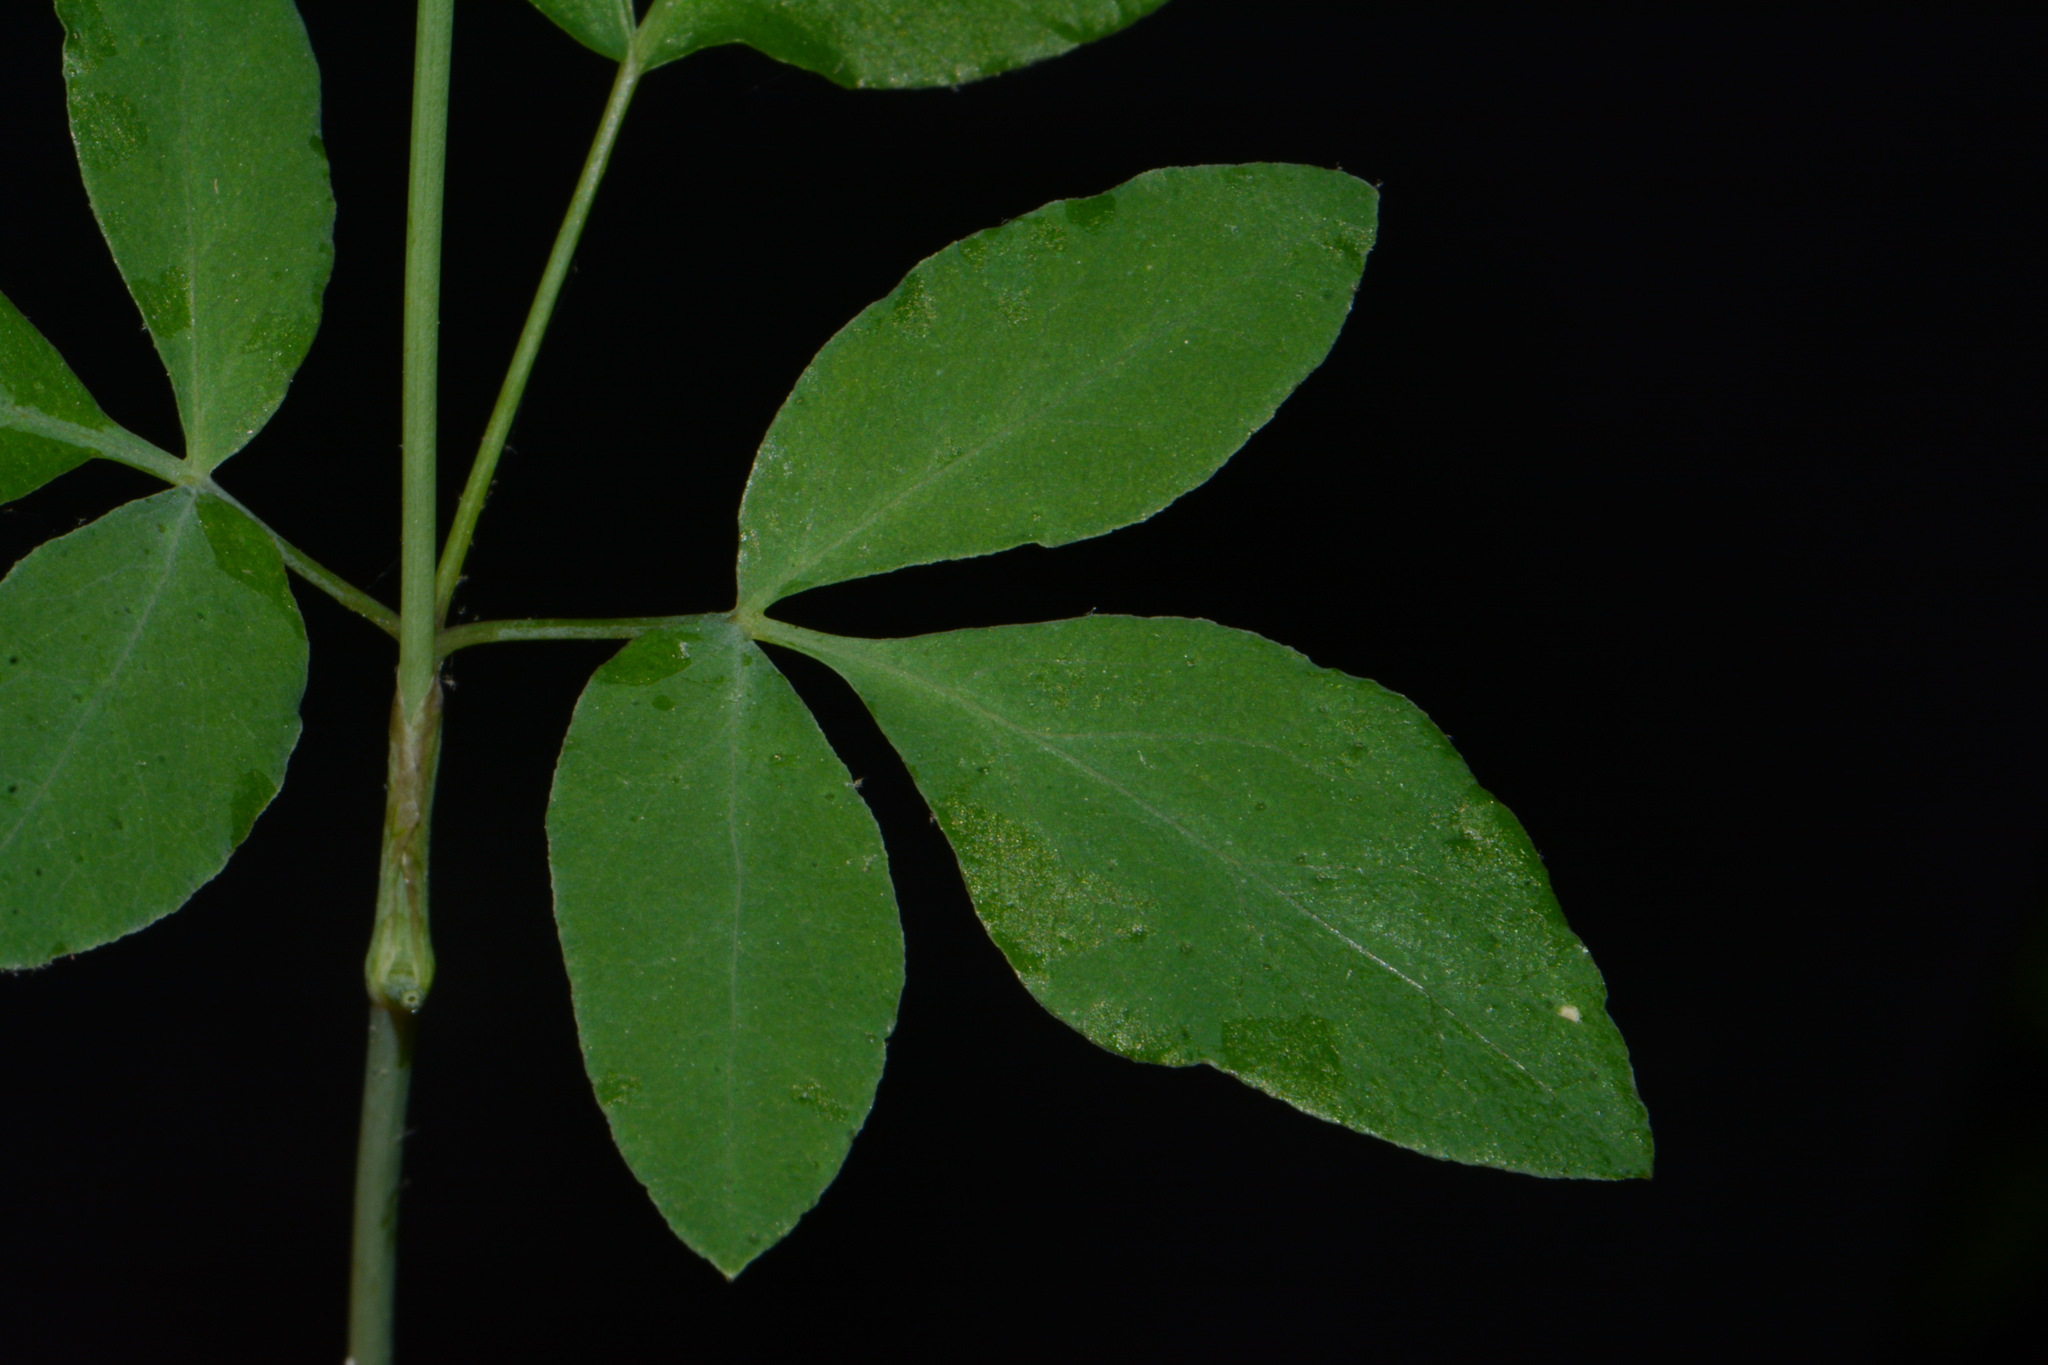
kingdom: Plantae
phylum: Tracheophyta
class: Magnoliopsida
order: Apiales
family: Apiaceae
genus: Taenidia
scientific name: Taenidia integerrima
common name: Golden alexander
